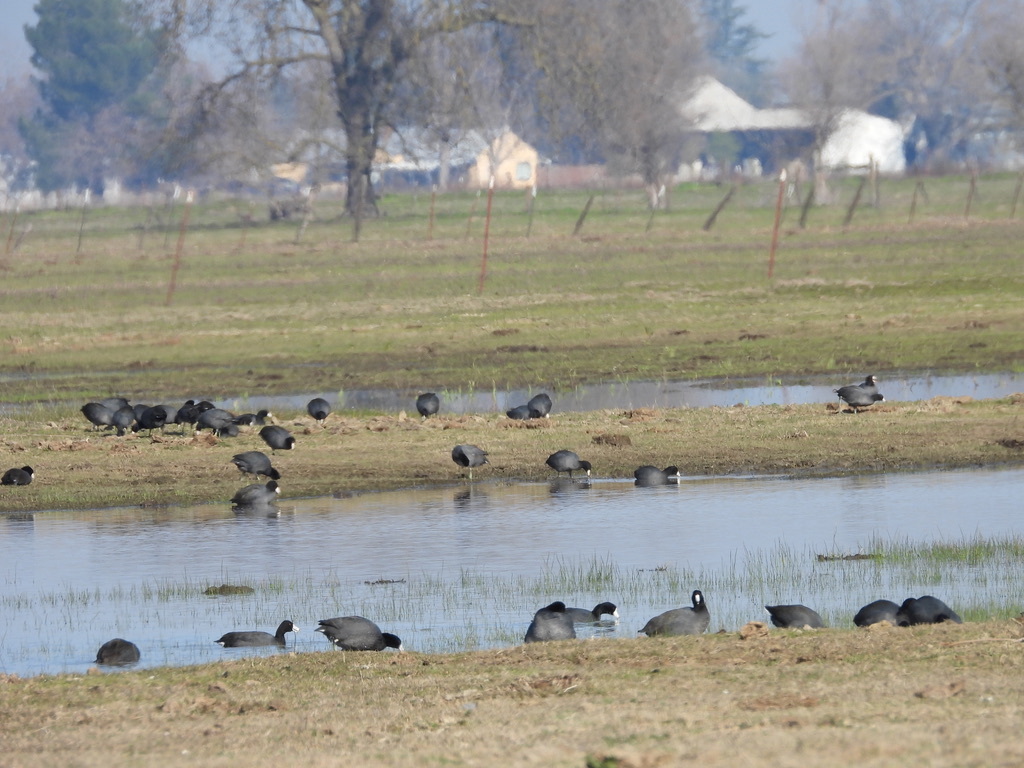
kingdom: Animalia
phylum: Chordata
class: Aves
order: Gruiformes
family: Rallidae
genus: Fulica
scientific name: Fulica americana
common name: American coot
